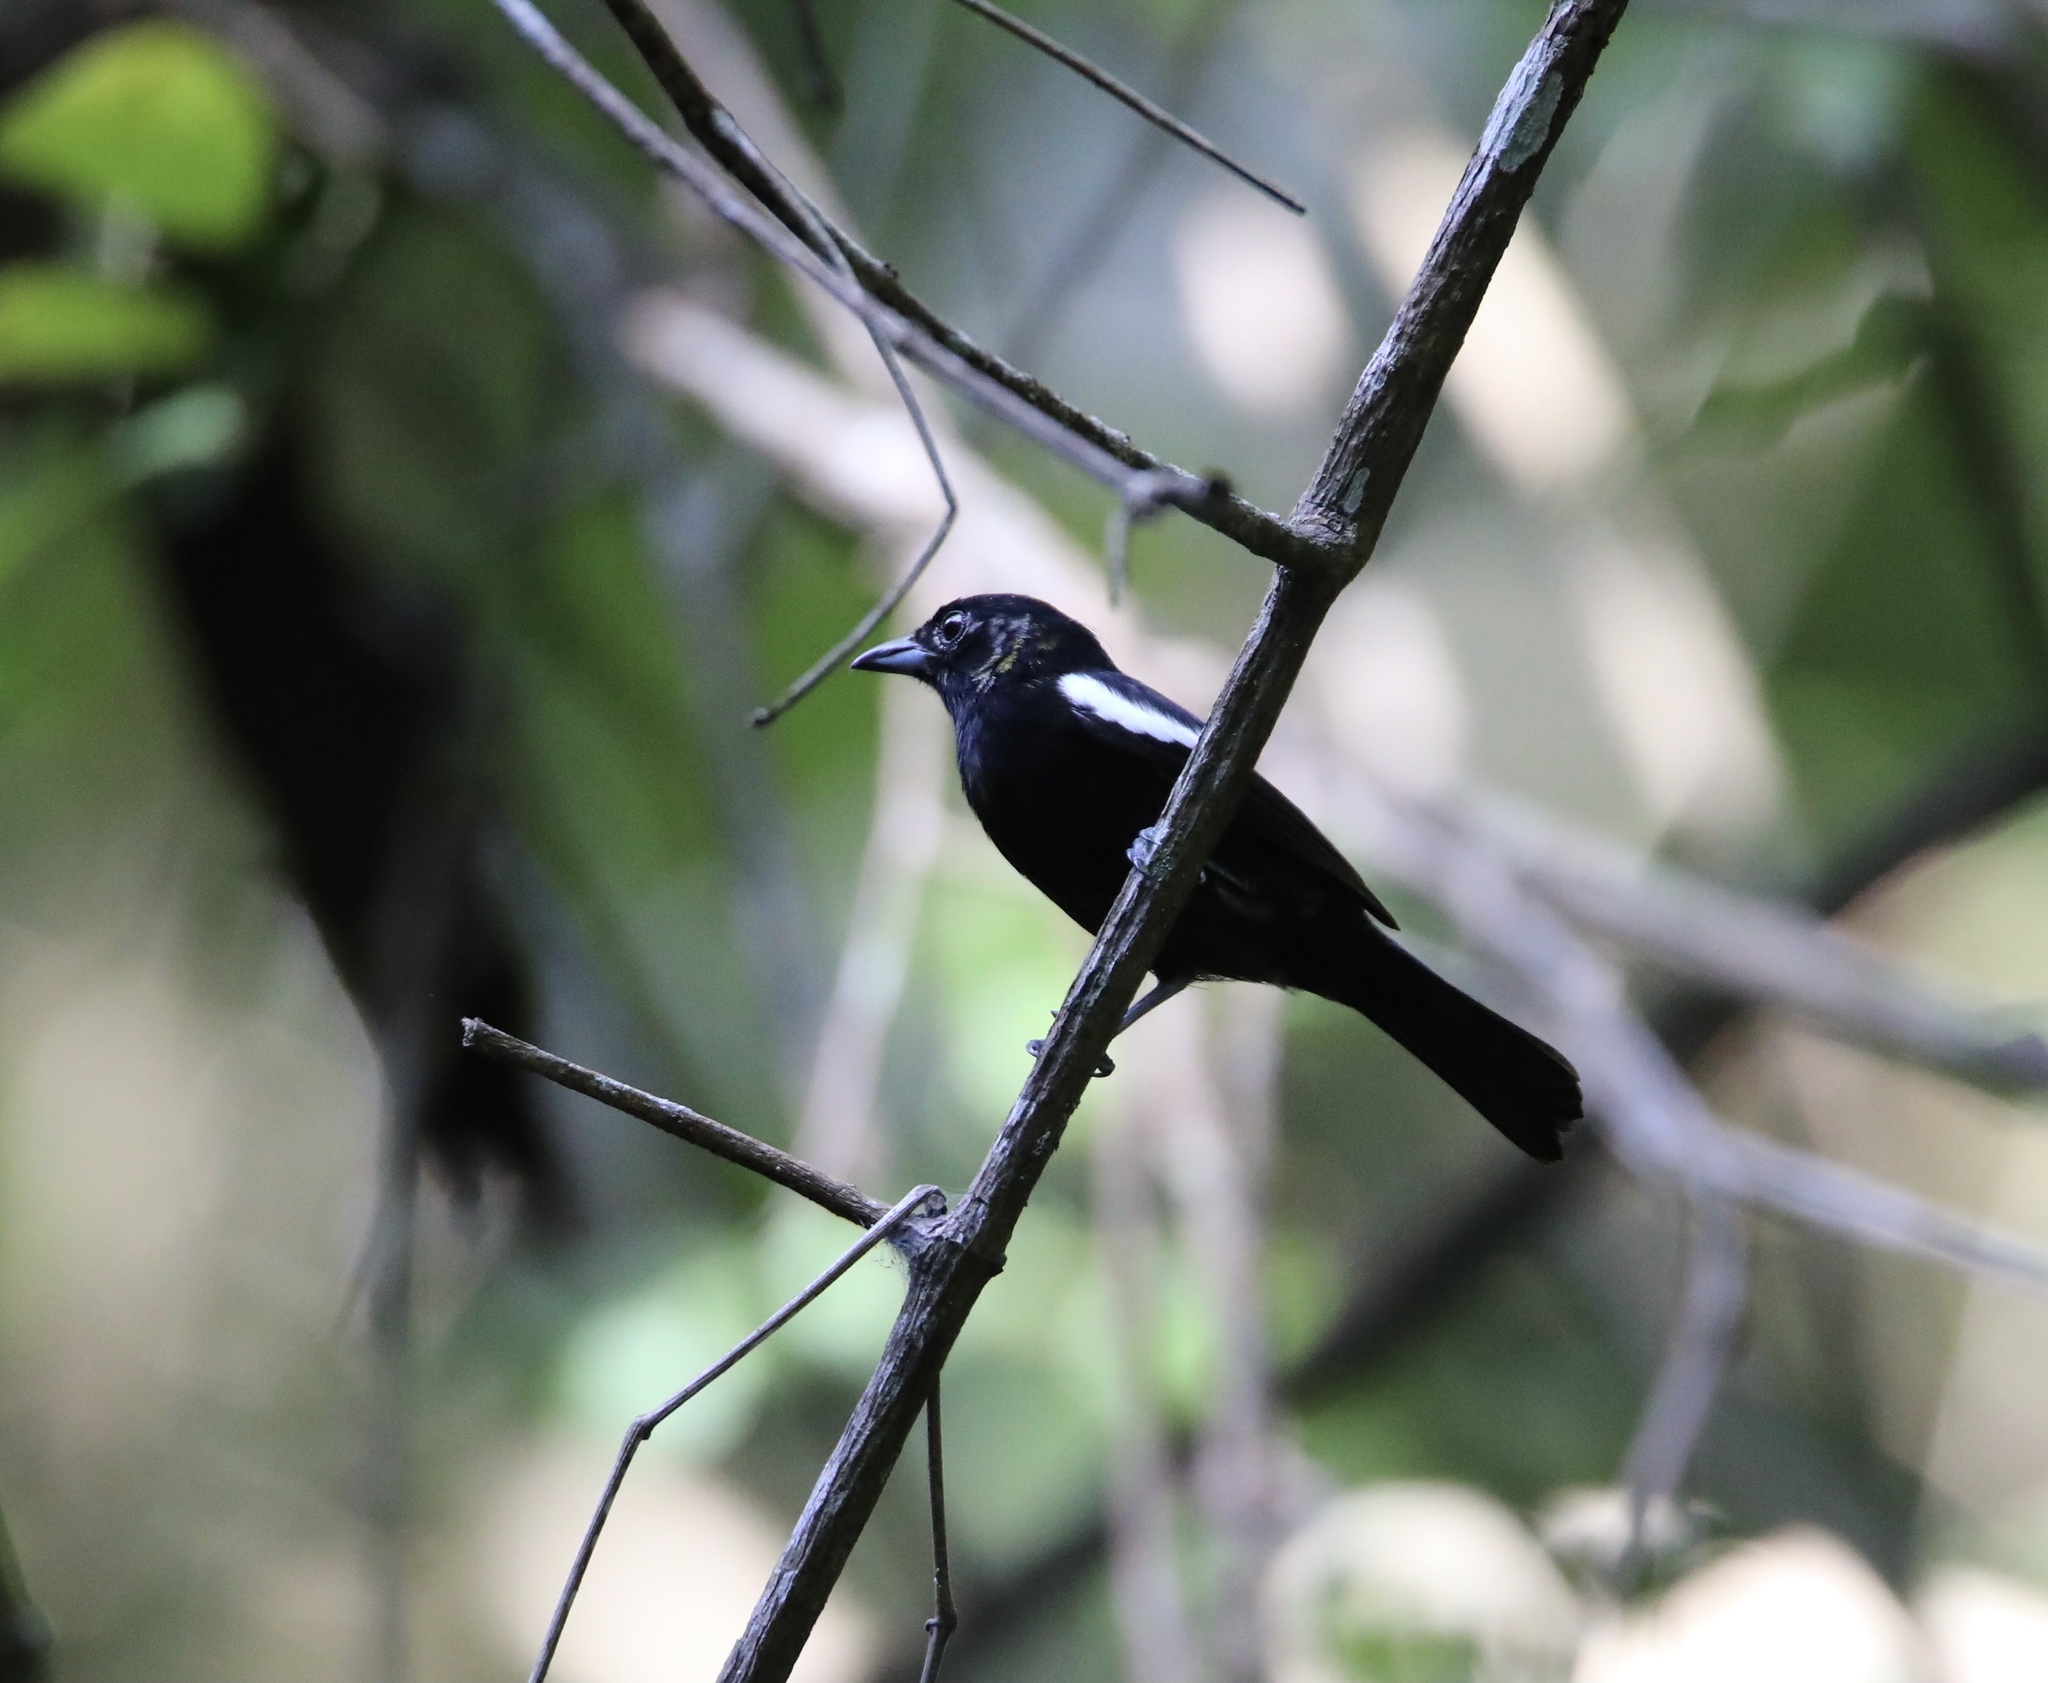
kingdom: Animalia
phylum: Chordata
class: Aves
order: Passeriformes
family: Thraupidae
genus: Loriotus
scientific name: Loriotus luctuosus
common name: White-shouldered tanager
